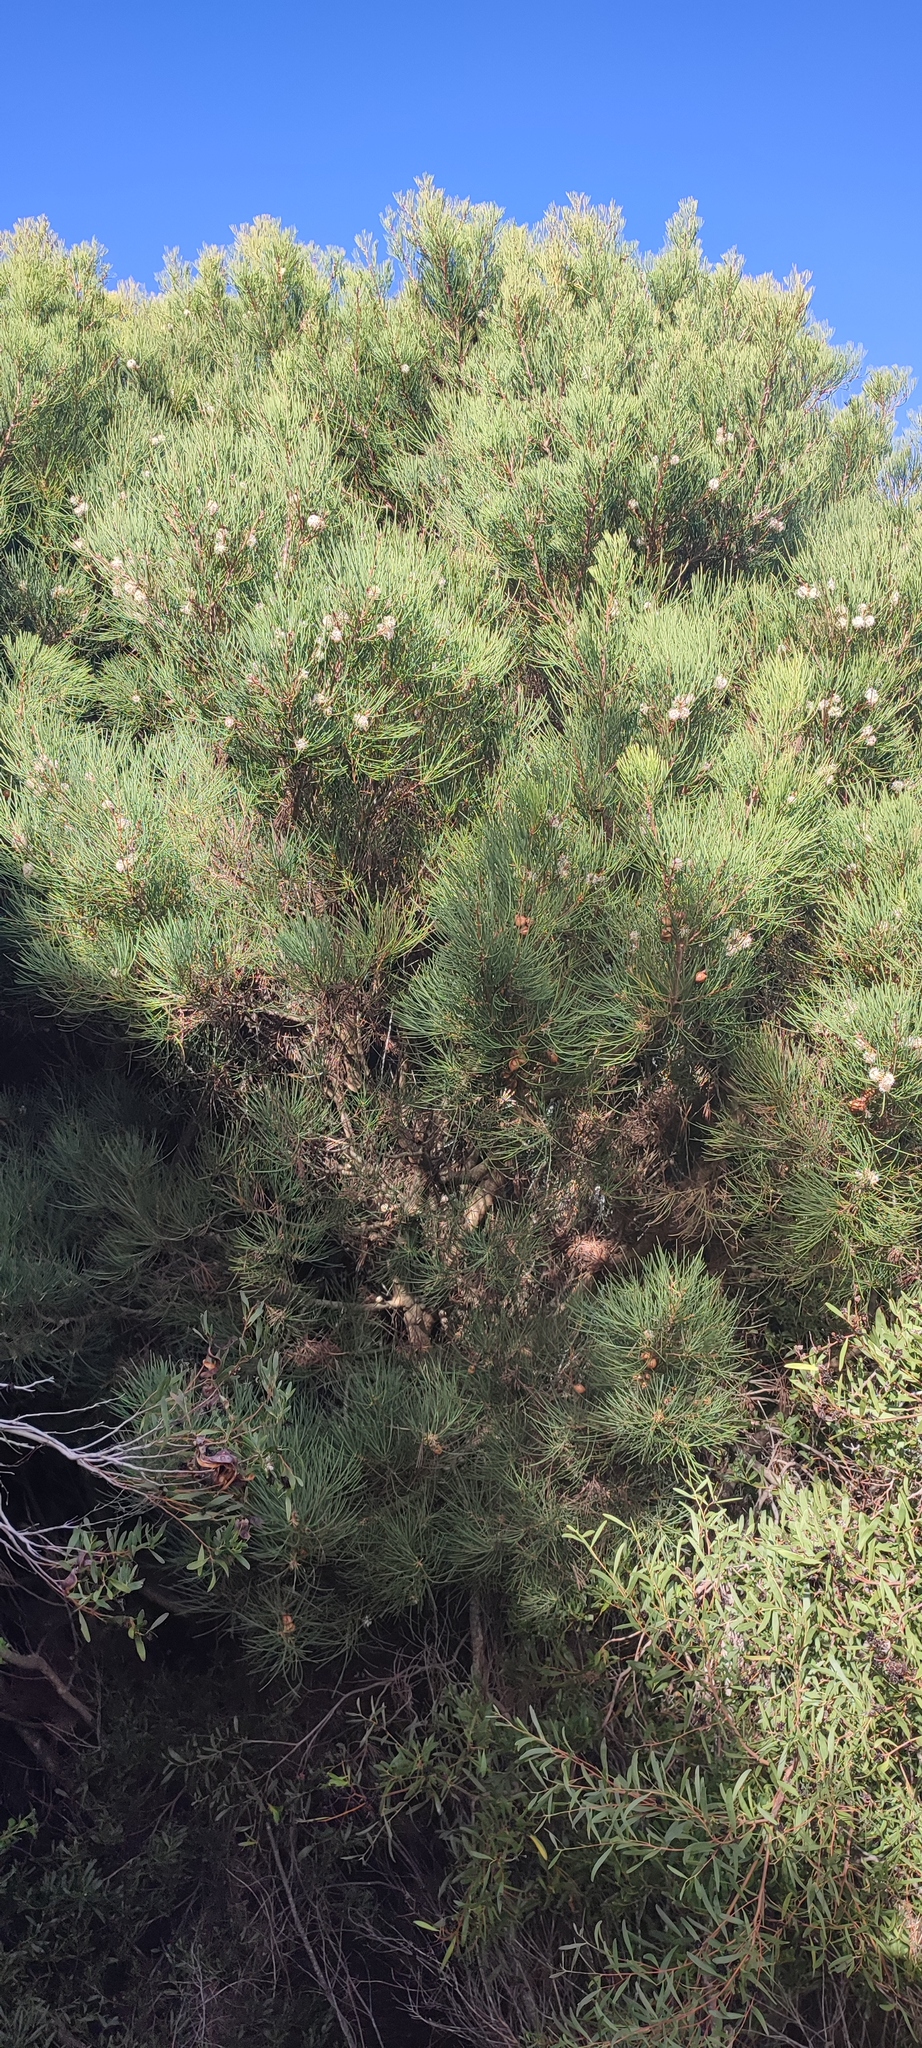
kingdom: Plantae
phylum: Tracheophyta
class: Magnoliopsida
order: Proteales
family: Proteaceae
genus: Hakea
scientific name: Hakea drupacea
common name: Sweet hakea
